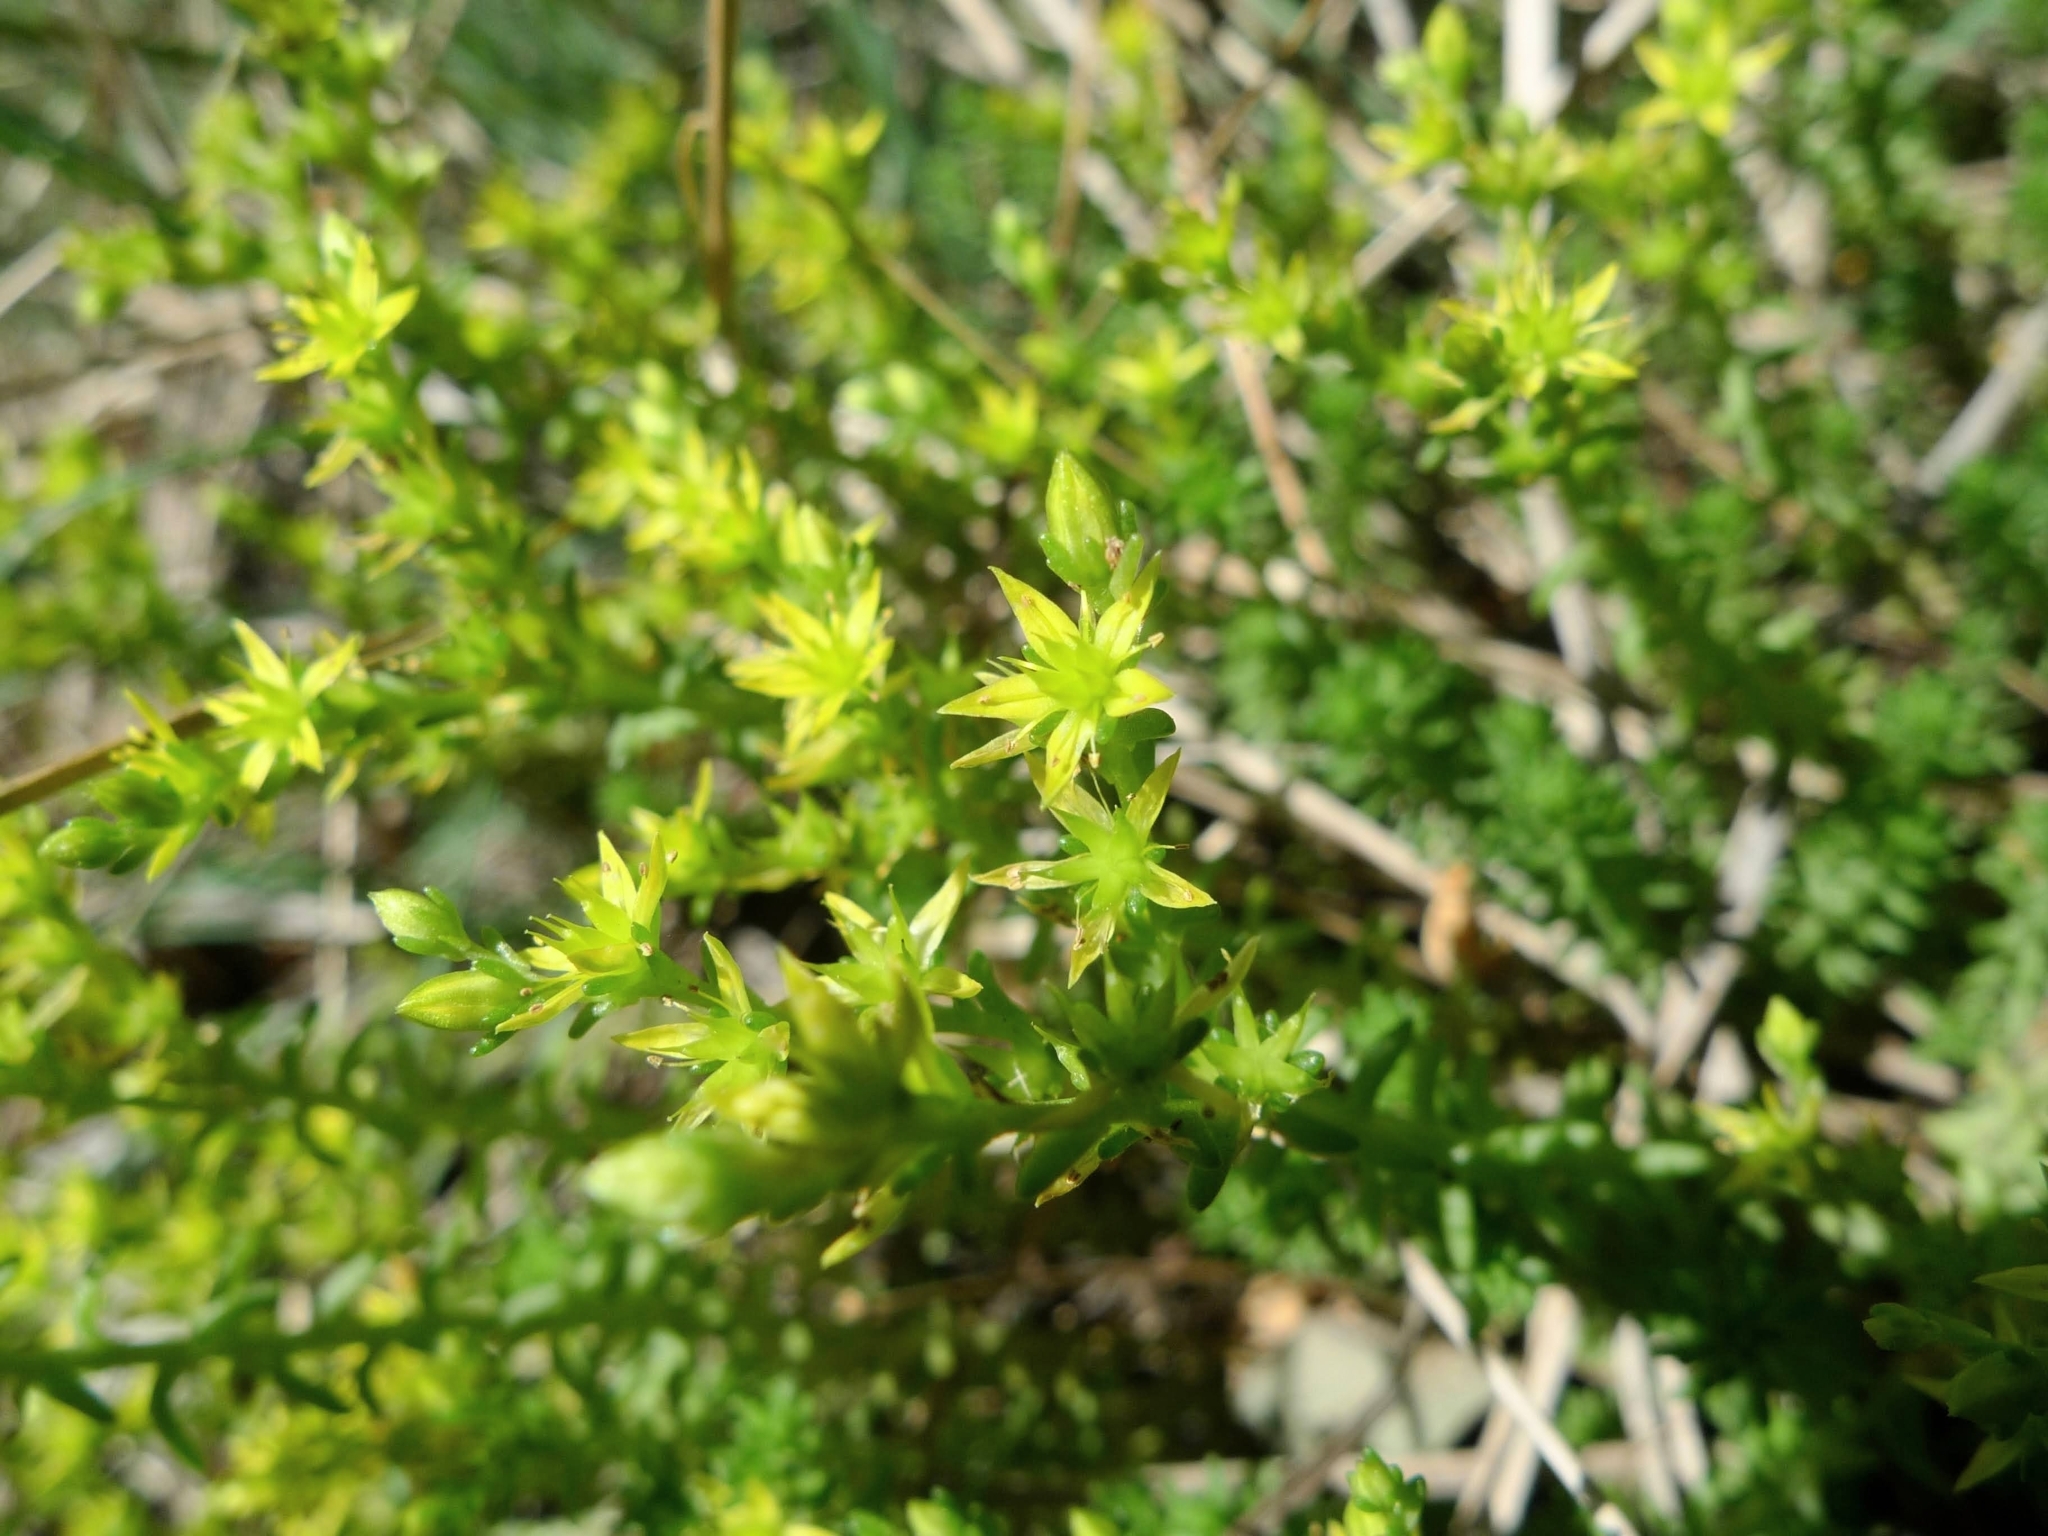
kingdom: Plantae
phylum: Tracheophyta
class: Magnoliopsida
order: Saxifragales
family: Crassulaceae
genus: Sedum
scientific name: Sedum sexangulare
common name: Tasteless stonecrop
